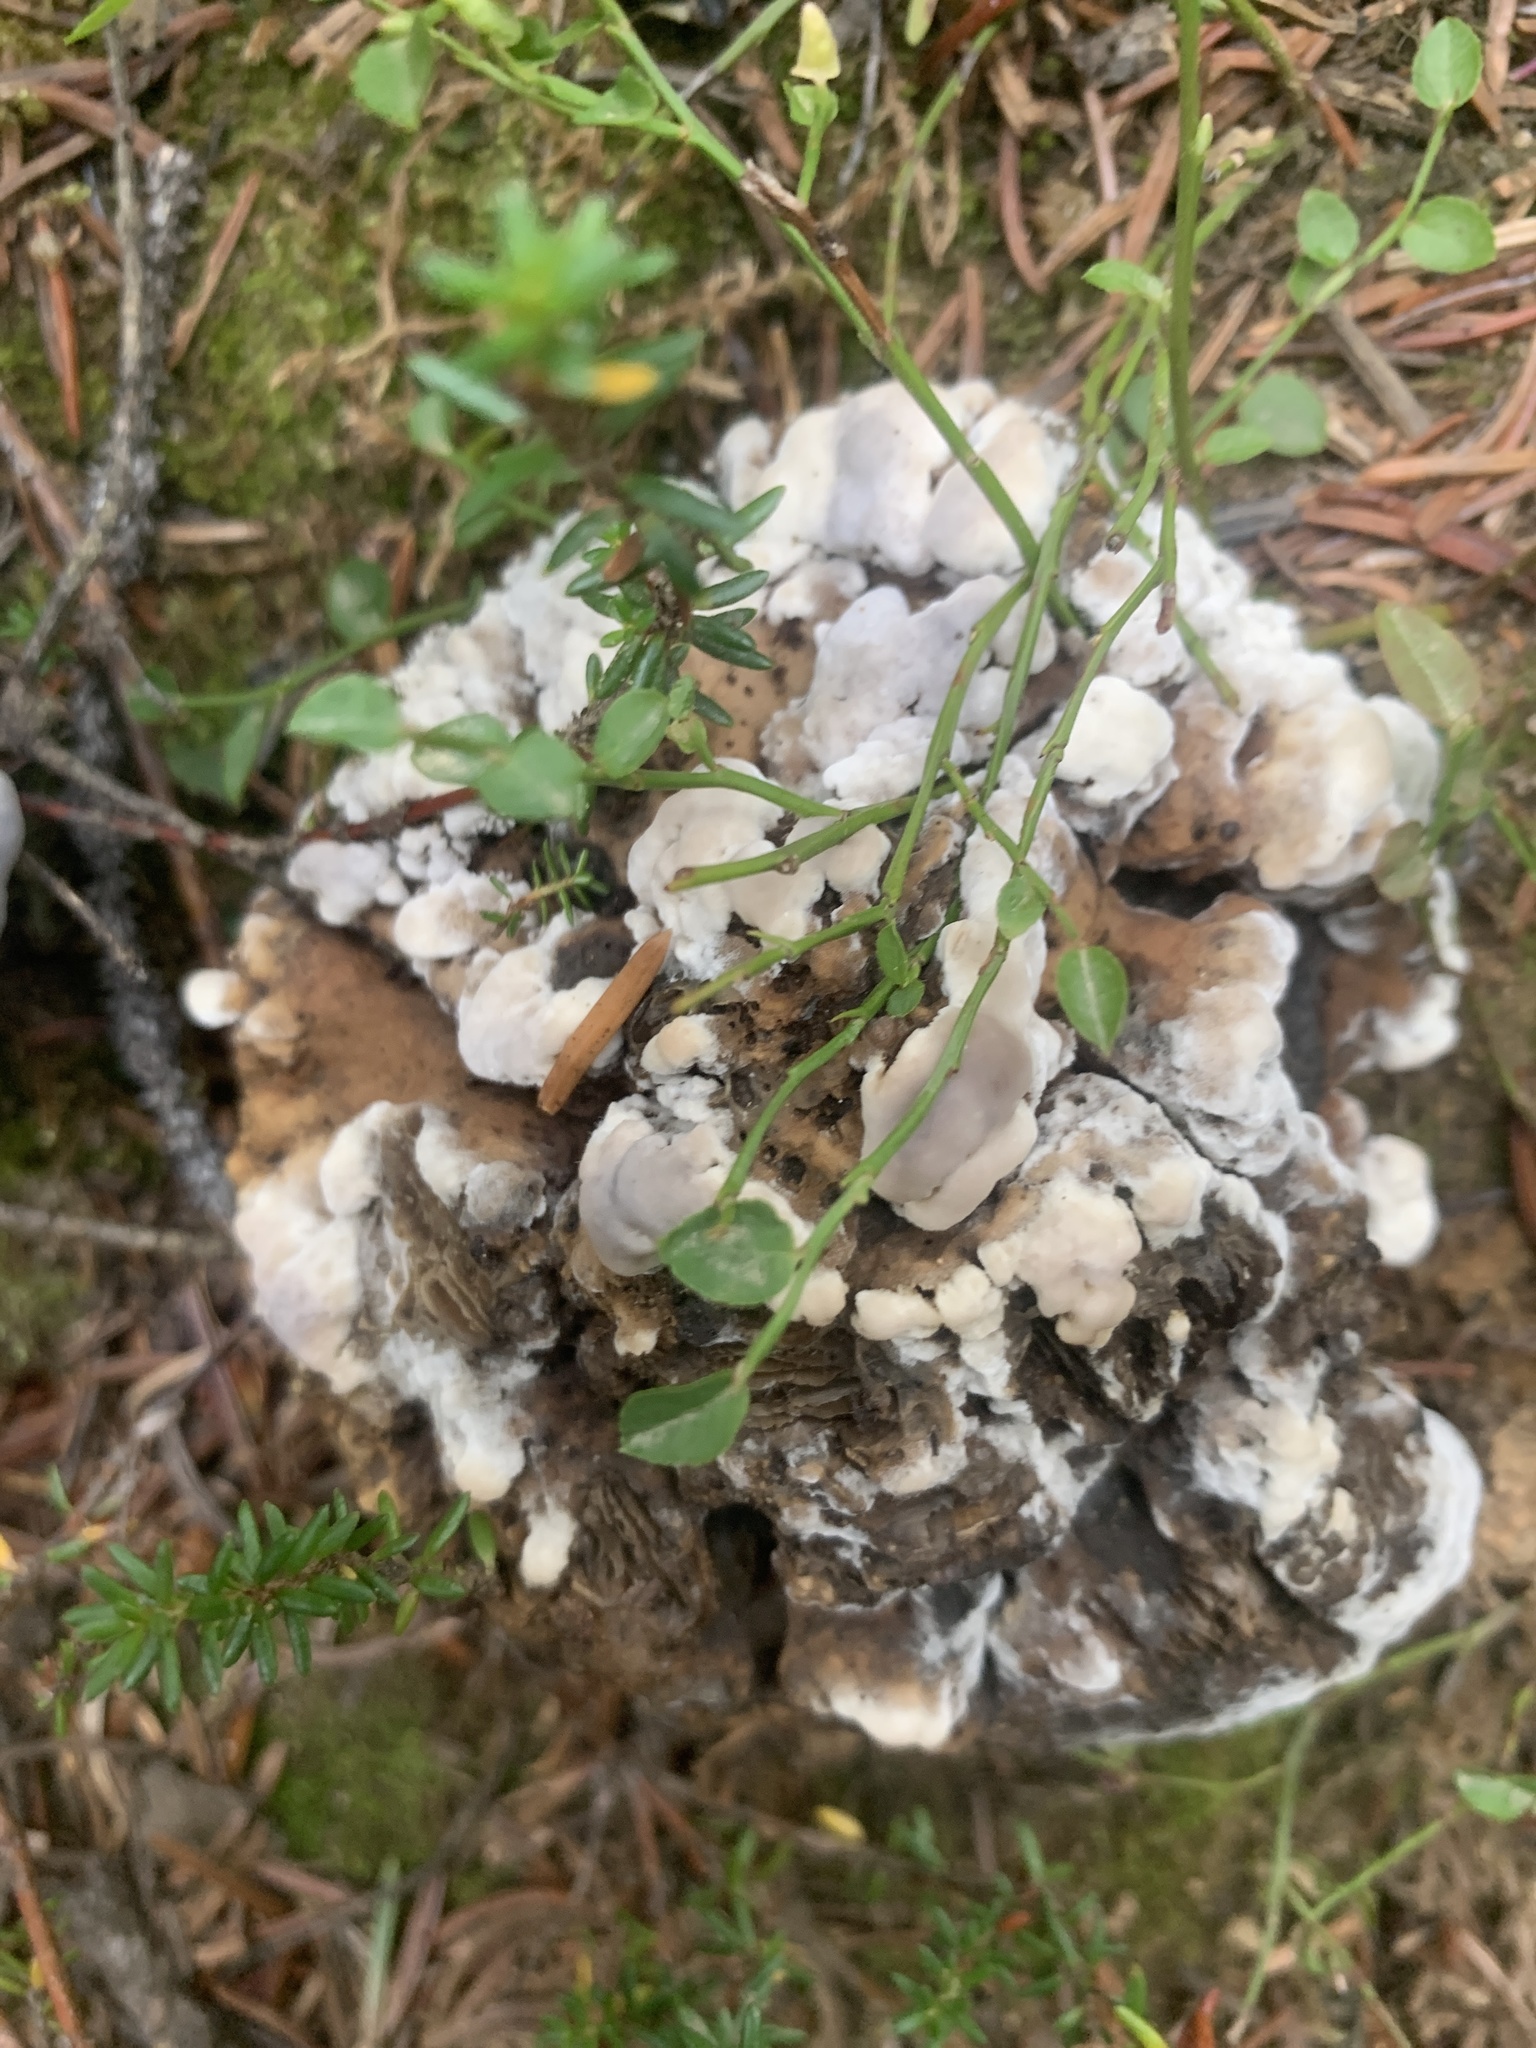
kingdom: Fungi
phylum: Basidiomycota
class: Agaricomycetes
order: Thelephorales
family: Bankeraceae
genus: Hydnellum
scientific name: Hydnellum caeruleum
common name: Blue corky spine fungus
